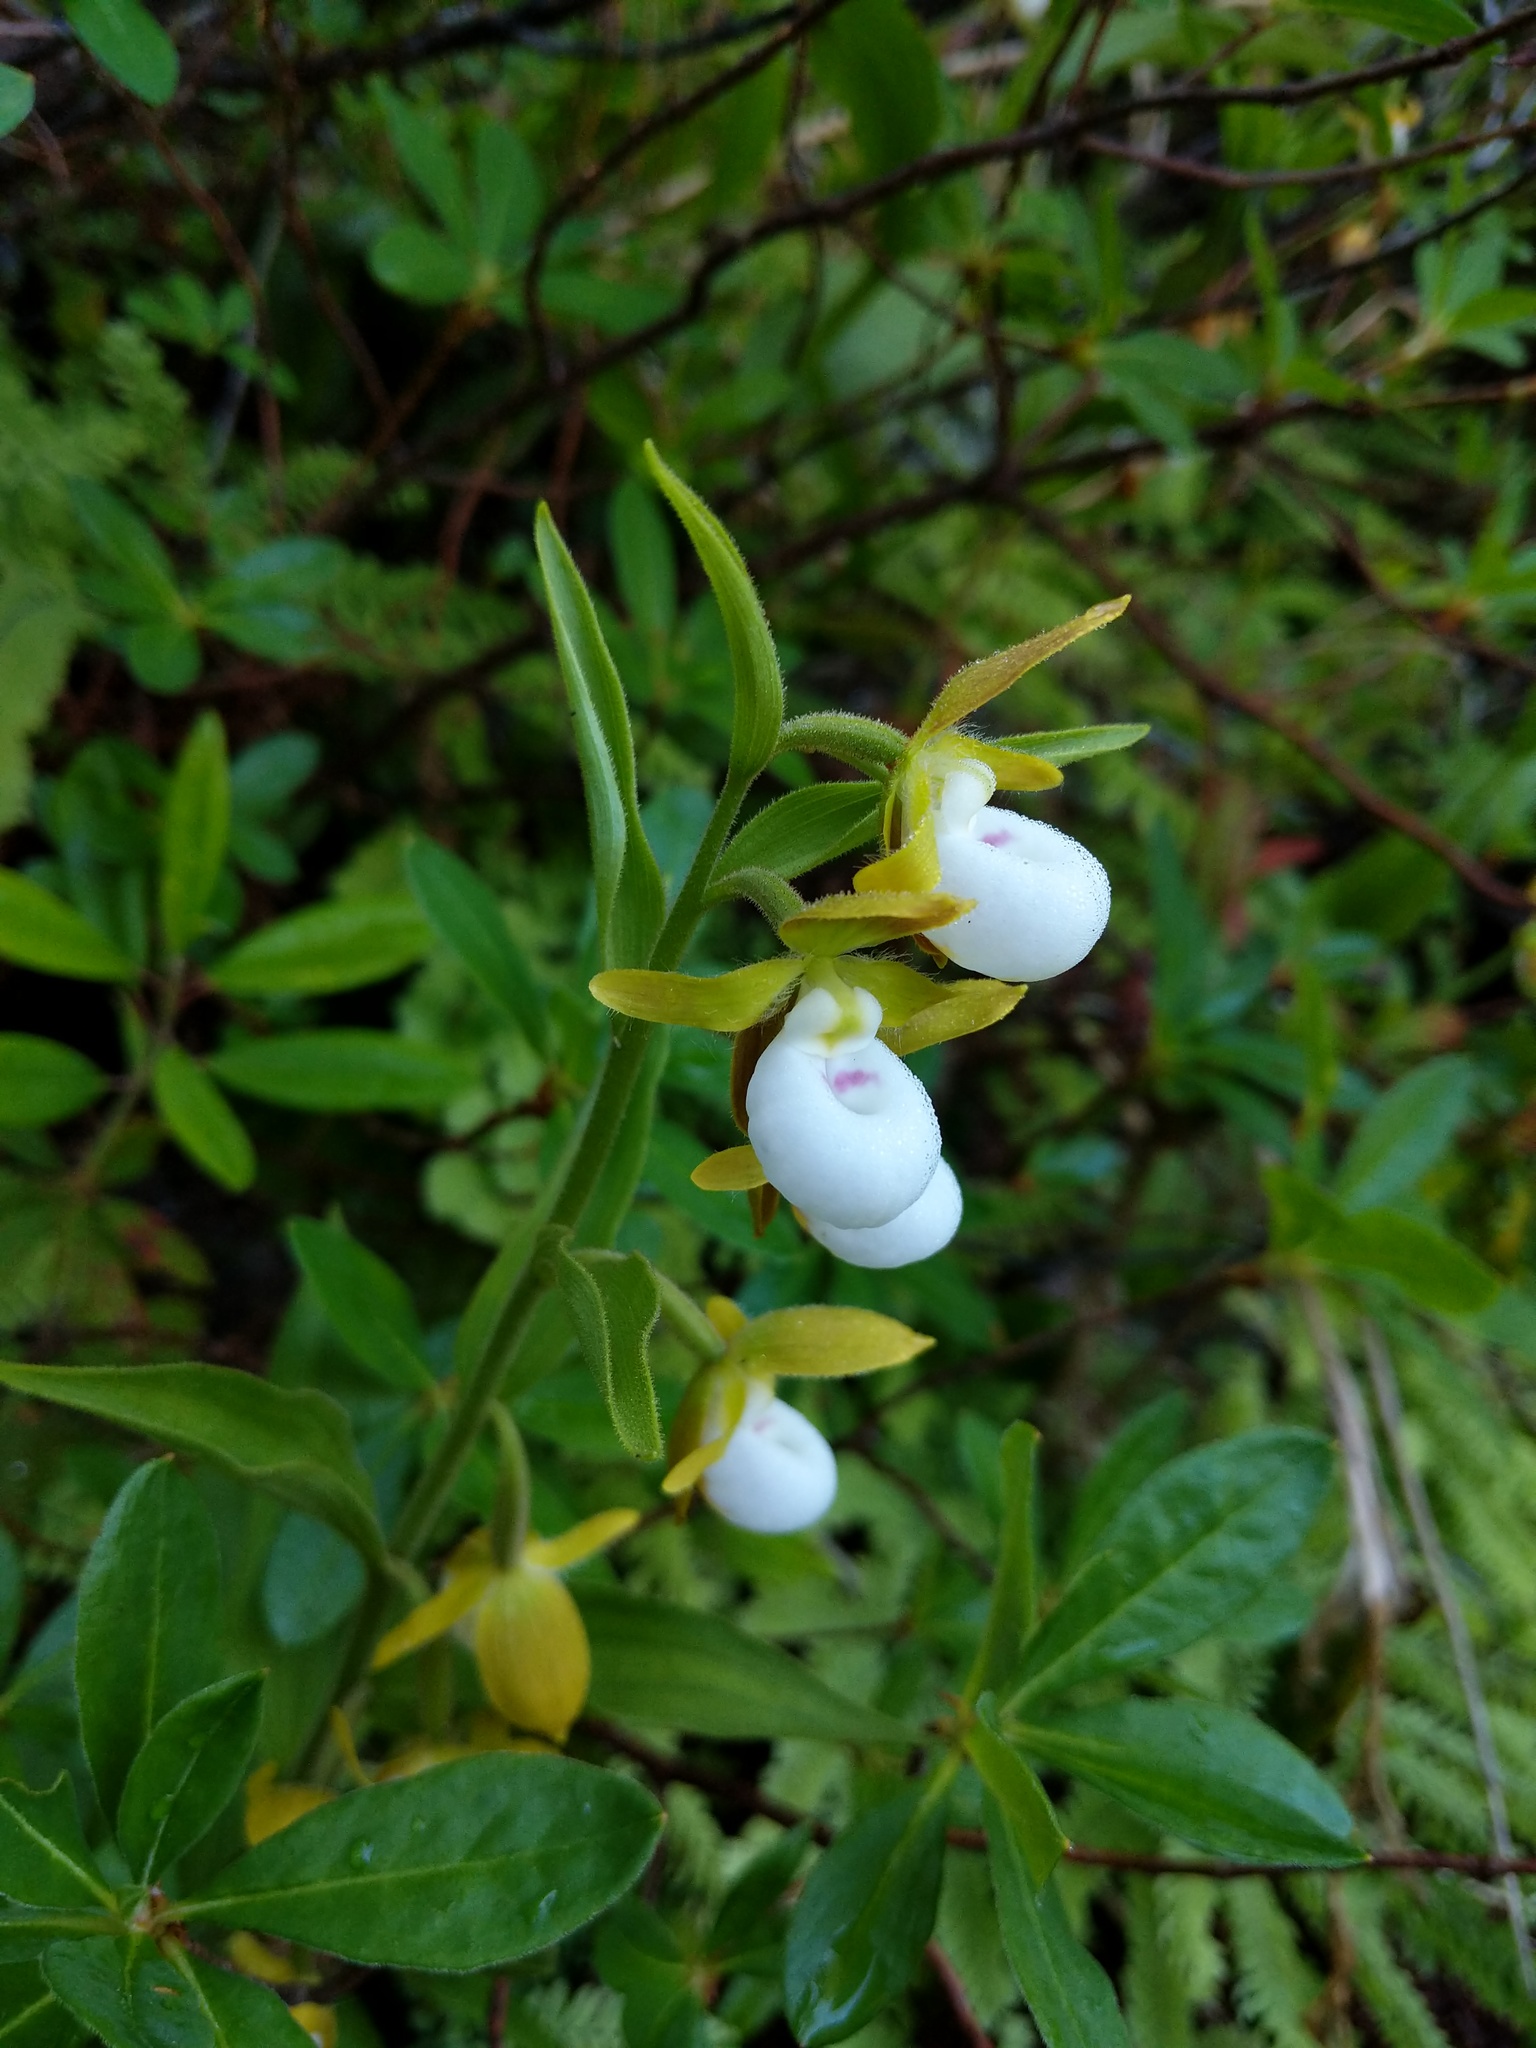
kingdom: Plantae
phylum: Tracheophyta
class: Liliopsida
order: Asparagales
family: Orchidaceae
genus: Cypripedium
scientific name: Cypripedium californicum
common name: California lady's slipper
